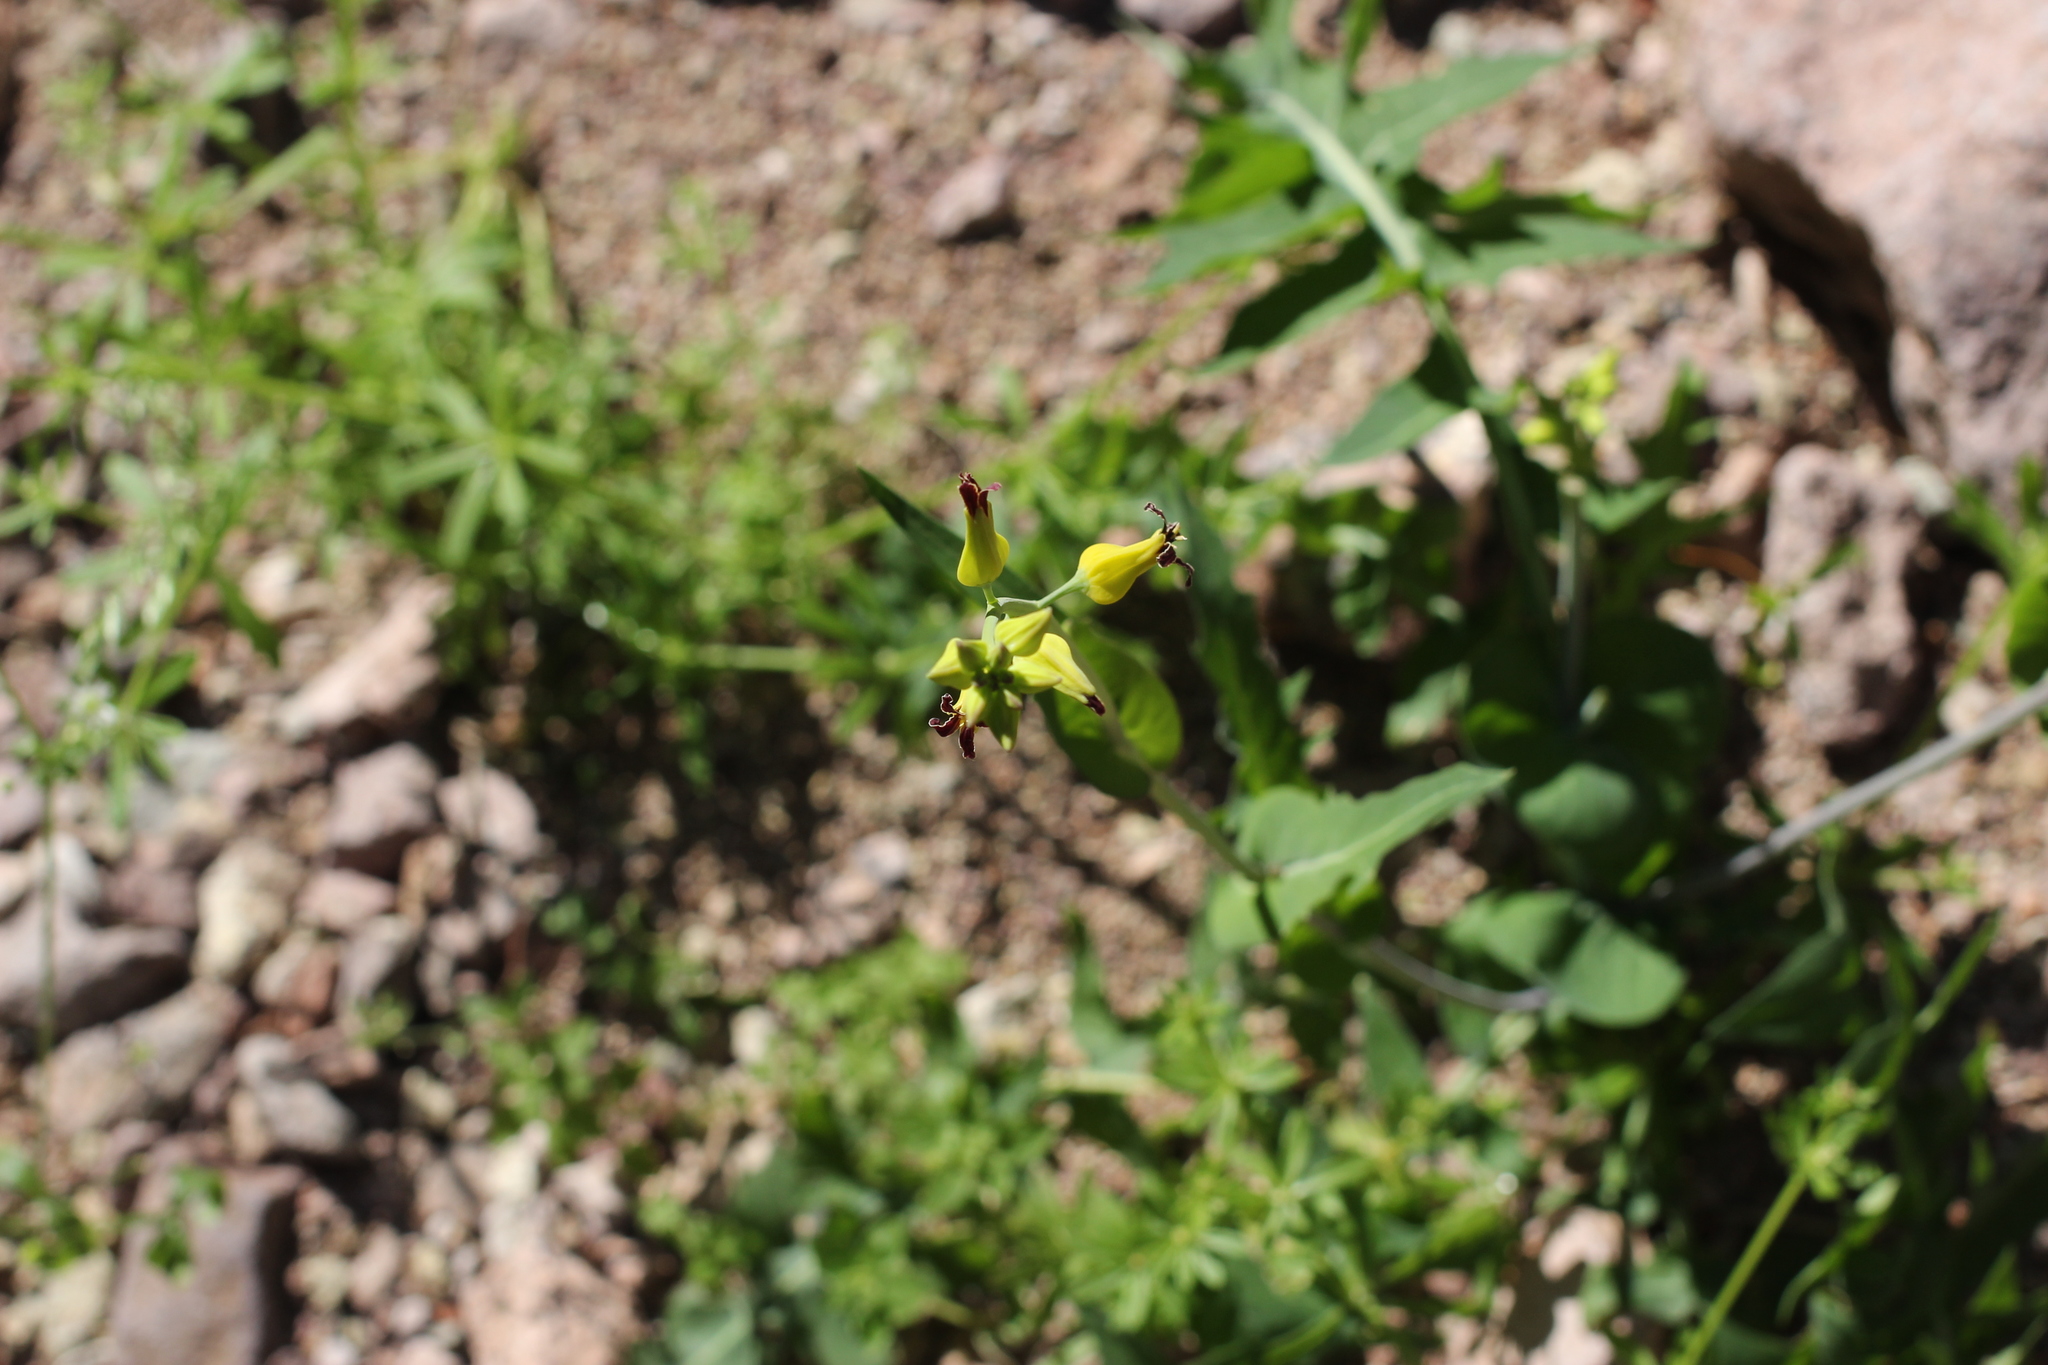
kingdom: Plantae
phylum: Tracheophyta
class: Magnoliopsida
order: Brassicales
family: Brassicaceae
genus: Streptanthus
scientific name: Streptanthus carinatus
